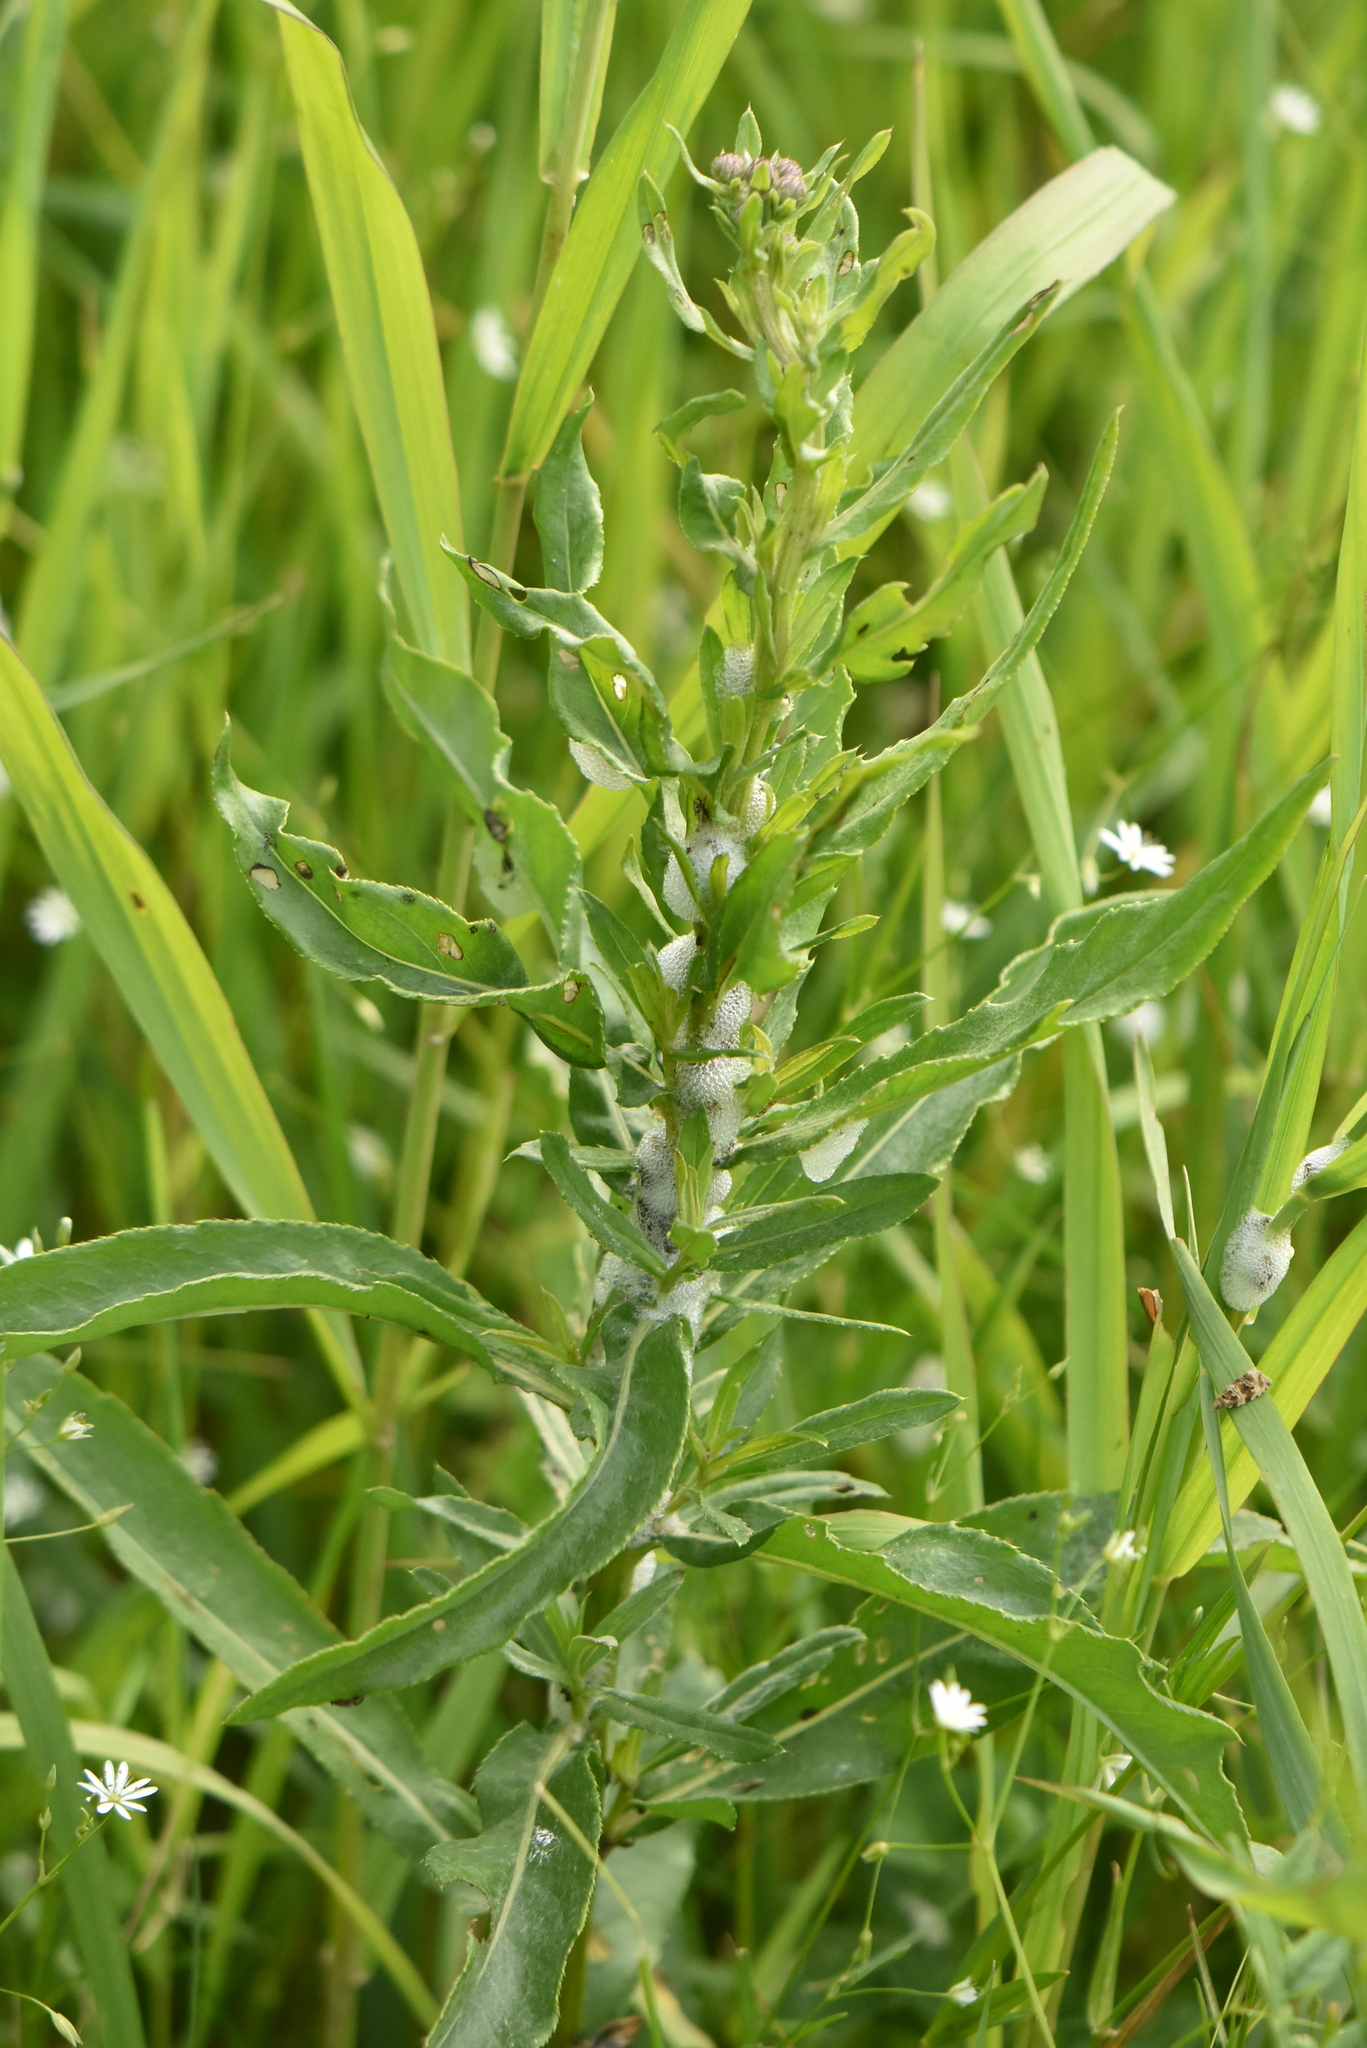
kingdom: Plantae
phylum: Tracheophyta
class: Magnoliopsida
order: Asterales
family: Asteraceae
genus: Cirsium
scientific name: Cirsium arvense
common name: Creeping thistle
